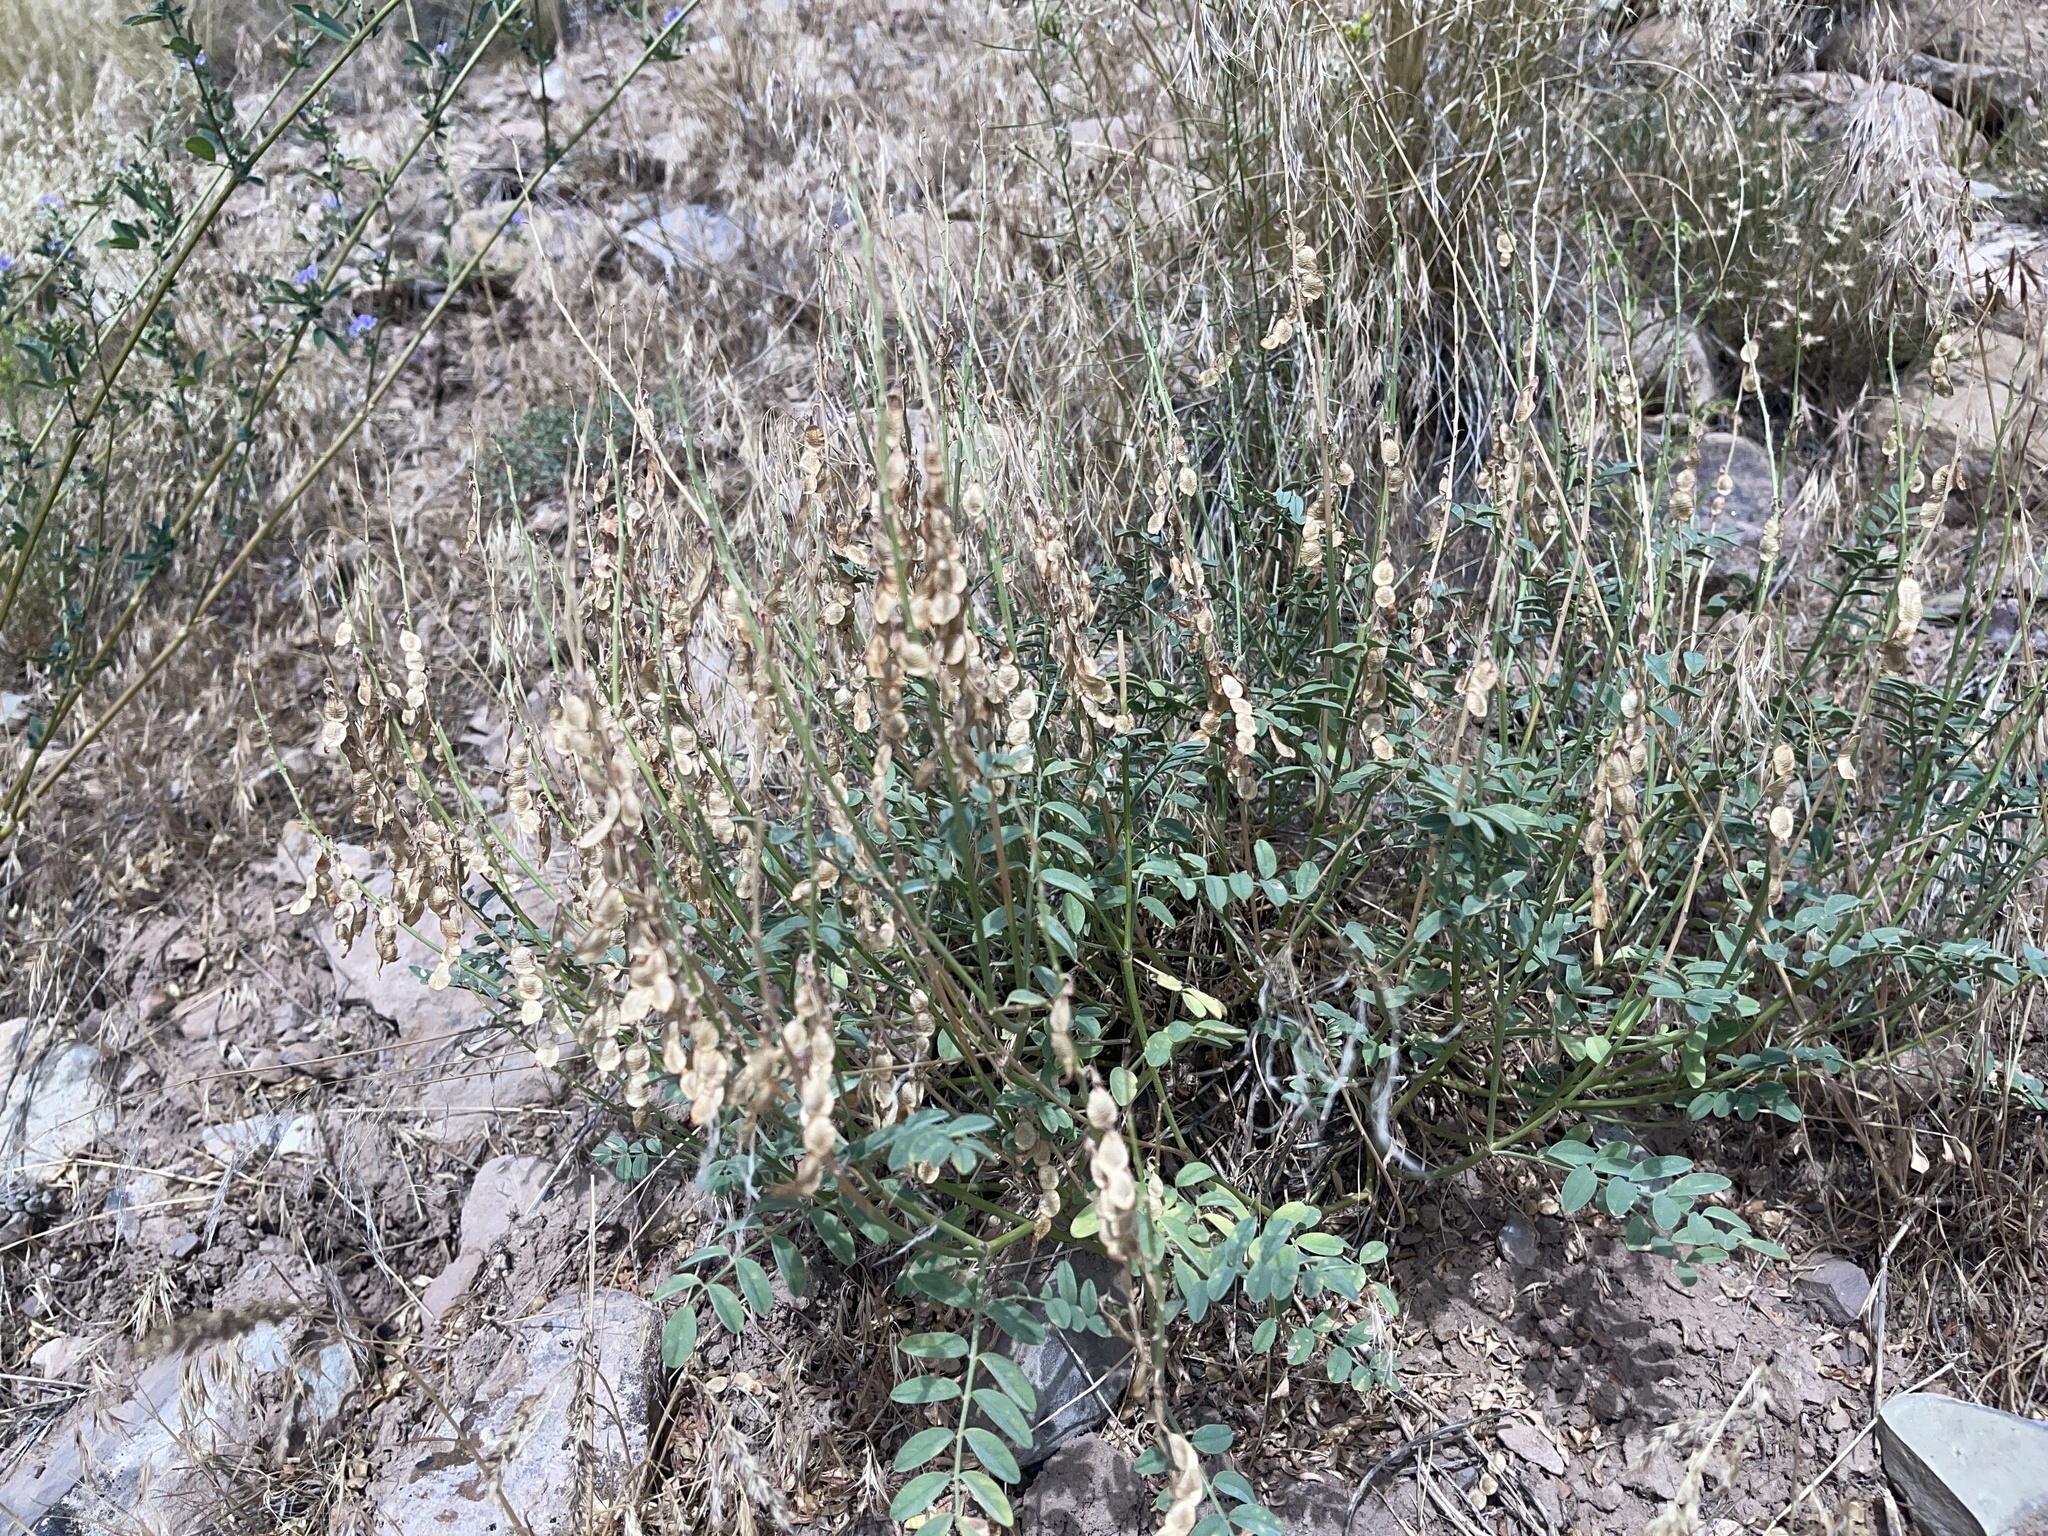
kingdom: Plantae
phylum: Tracheophyta
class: Magnoliopsida
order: Fabales
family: Fabaceae
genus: Hedysarum
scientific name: Hedysarum boreale
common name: Northern sweet-vetch
